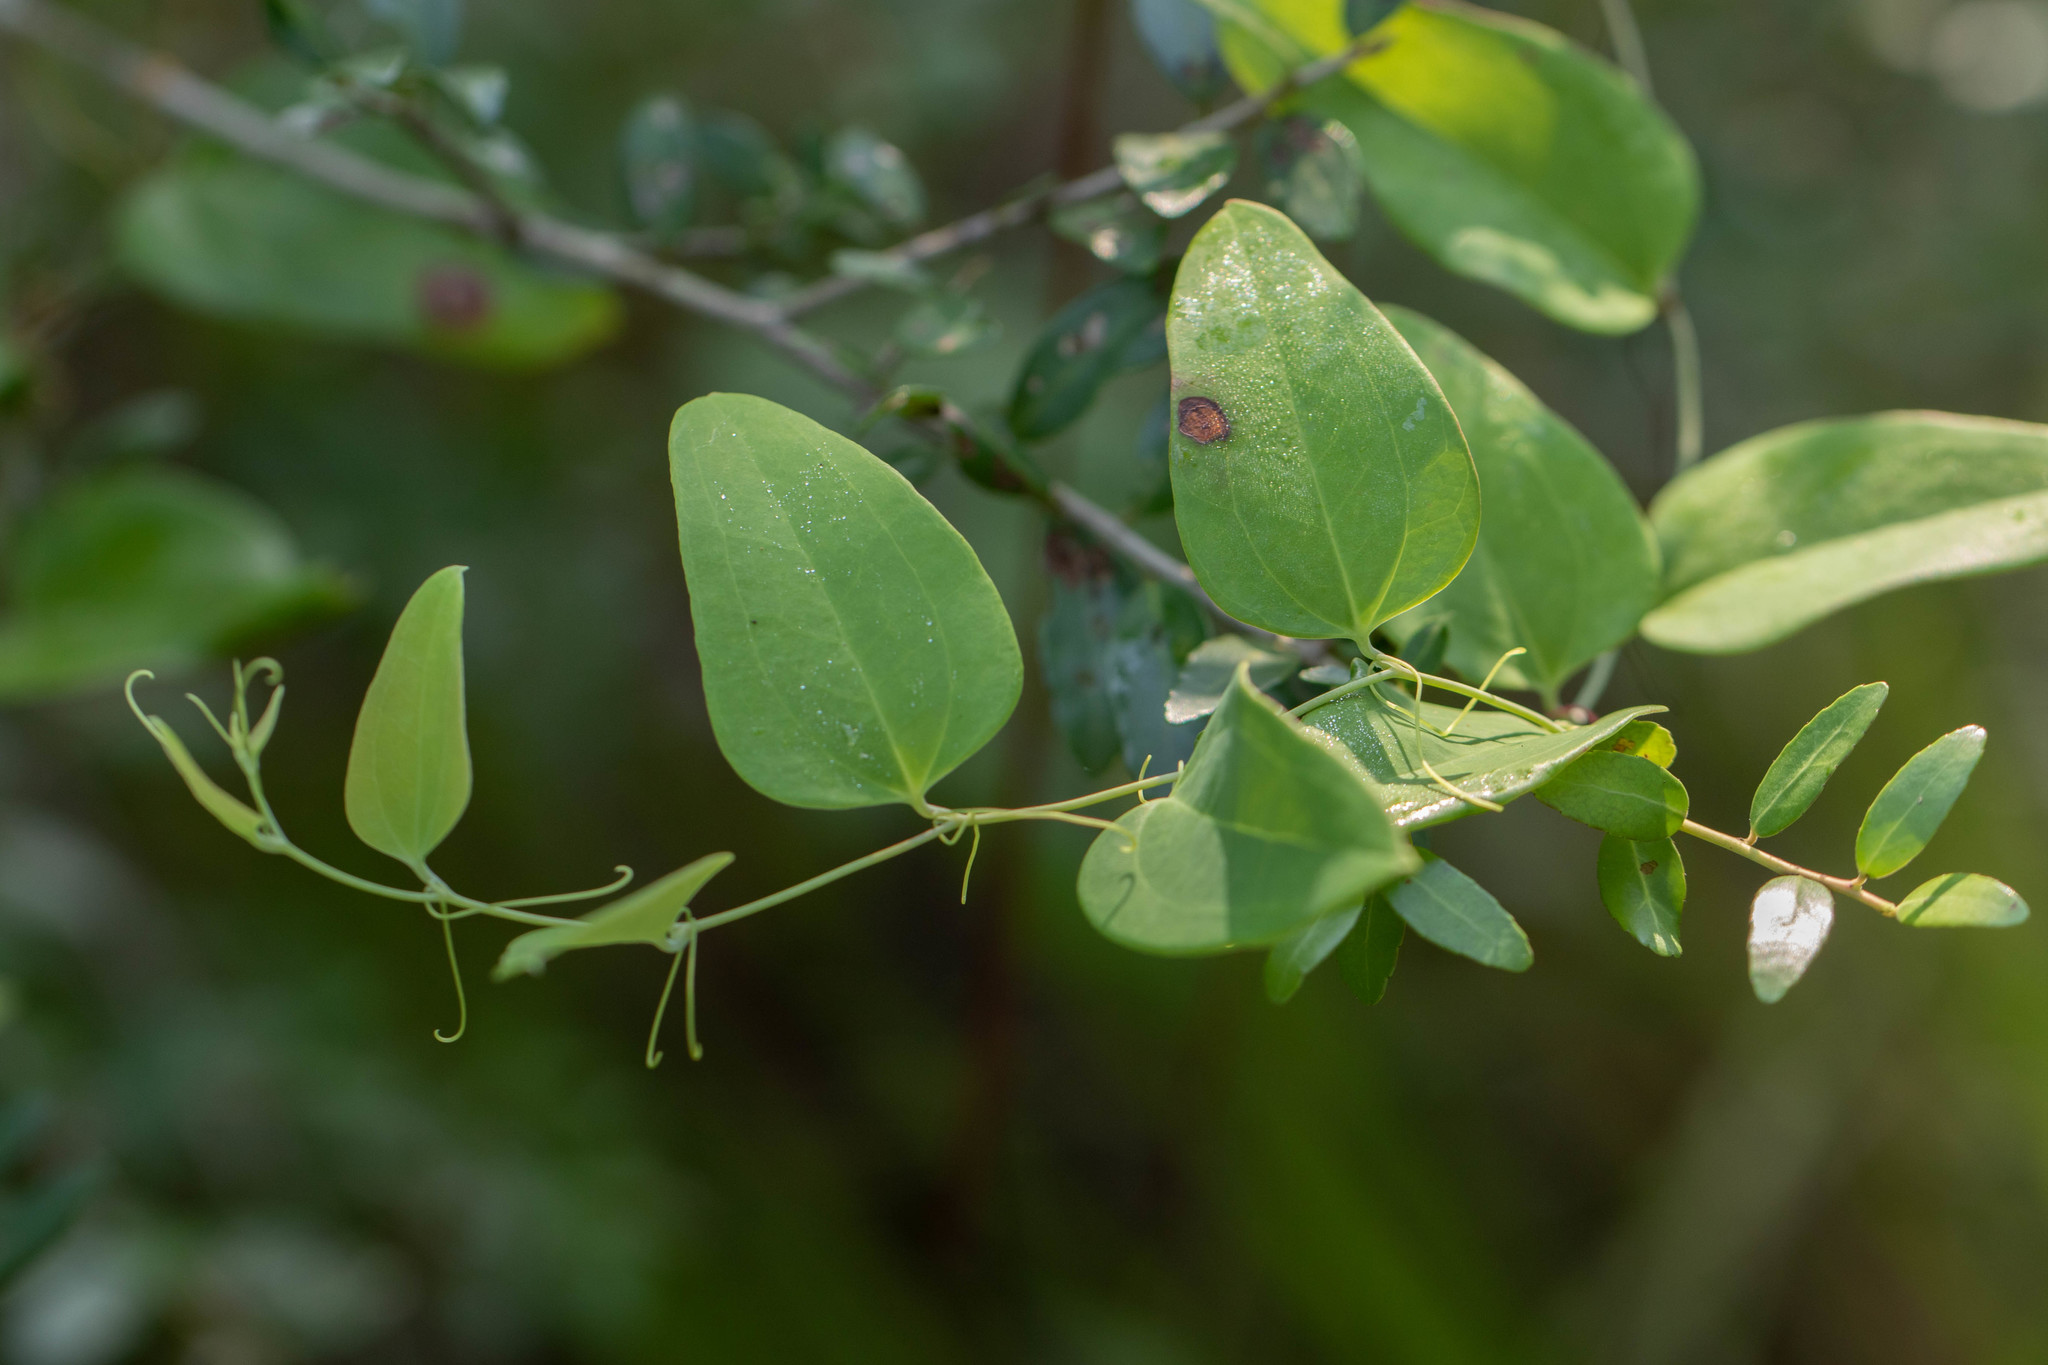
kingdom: Plantae
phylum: Tracheophyta
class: Liliopsida
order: Liliales
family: Smilacaceae
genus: Smilax
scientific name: Smilax glauca
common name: Cat greenbrier
